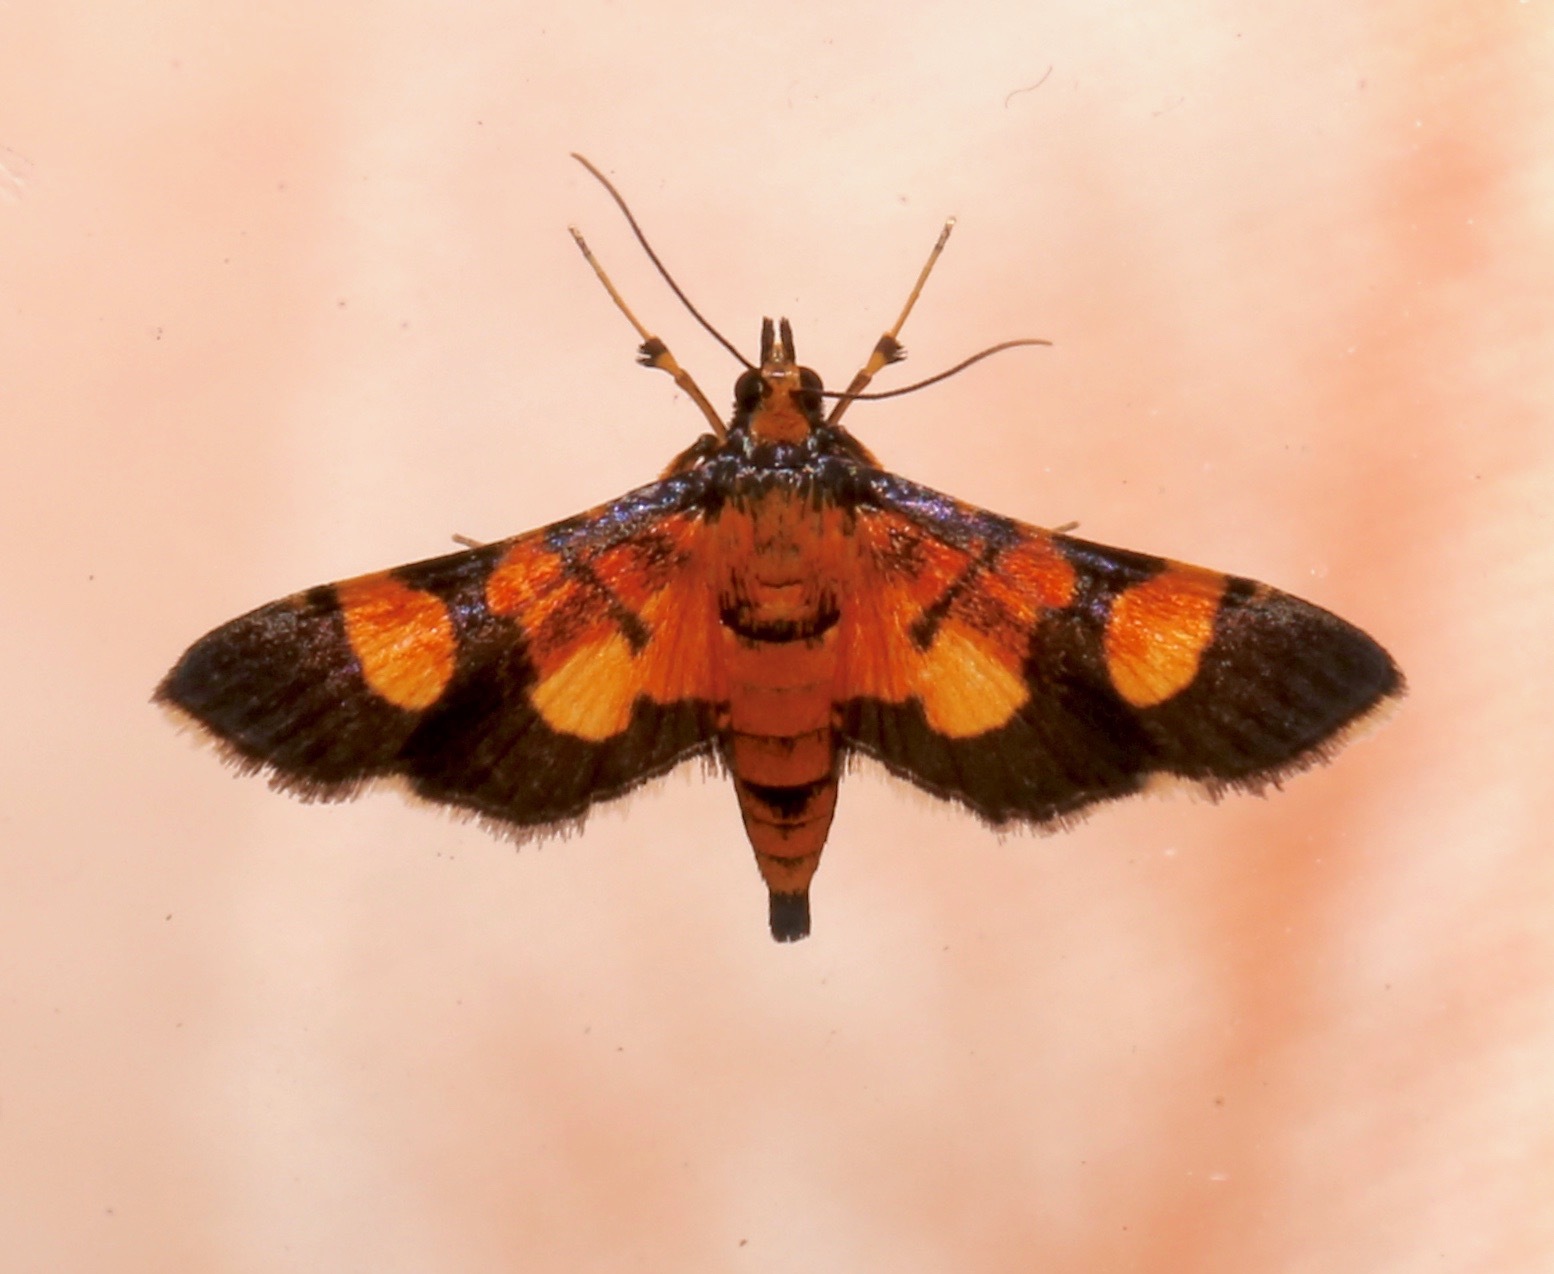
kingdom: Animalia
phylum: Arthropoda
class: Insecta
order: Lepidoptera
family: Crambidae
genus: Aethaloessa
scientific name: Aethaloessa floridalis
